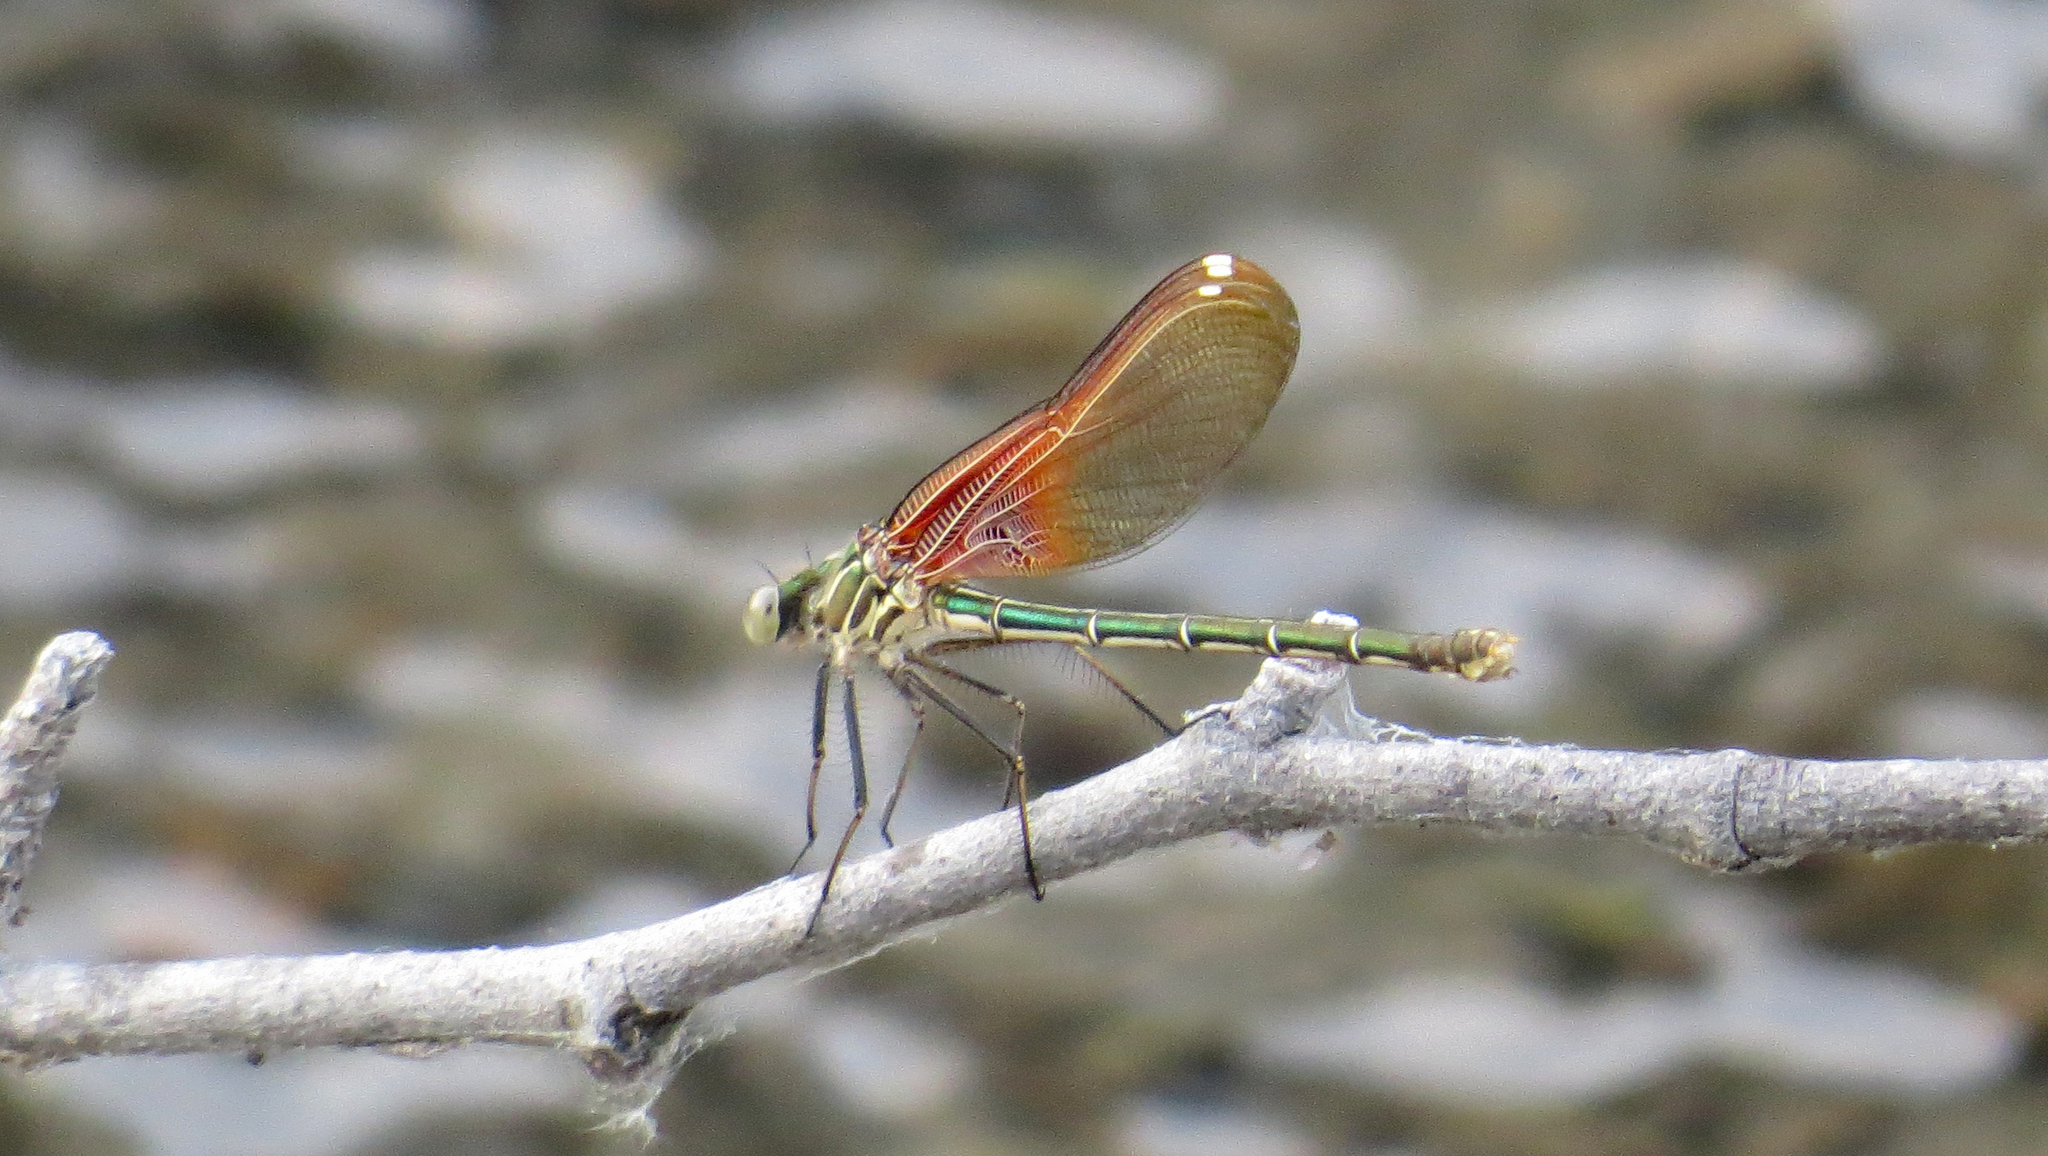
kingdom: Animalia
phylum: Arthropoda
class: Insecta
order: Odonata
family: Calopterygidae
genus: Hetaerina
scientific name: Hetaerina americana
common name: American rubyspot
